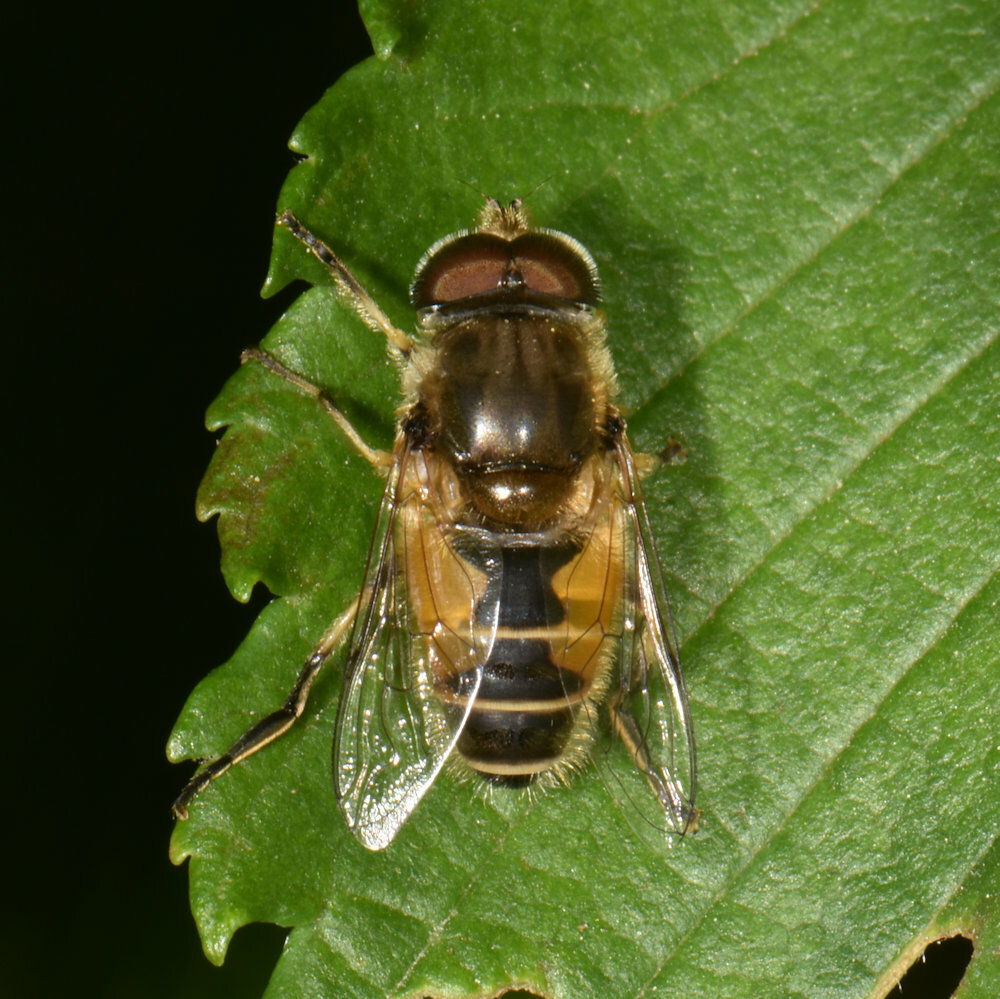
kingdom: Animalia
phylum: Arthropoda
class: Insecta
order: Diptera
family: Syrphidae
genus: Eristalis
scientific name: Eristalis arbustorum
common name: Hover fly
